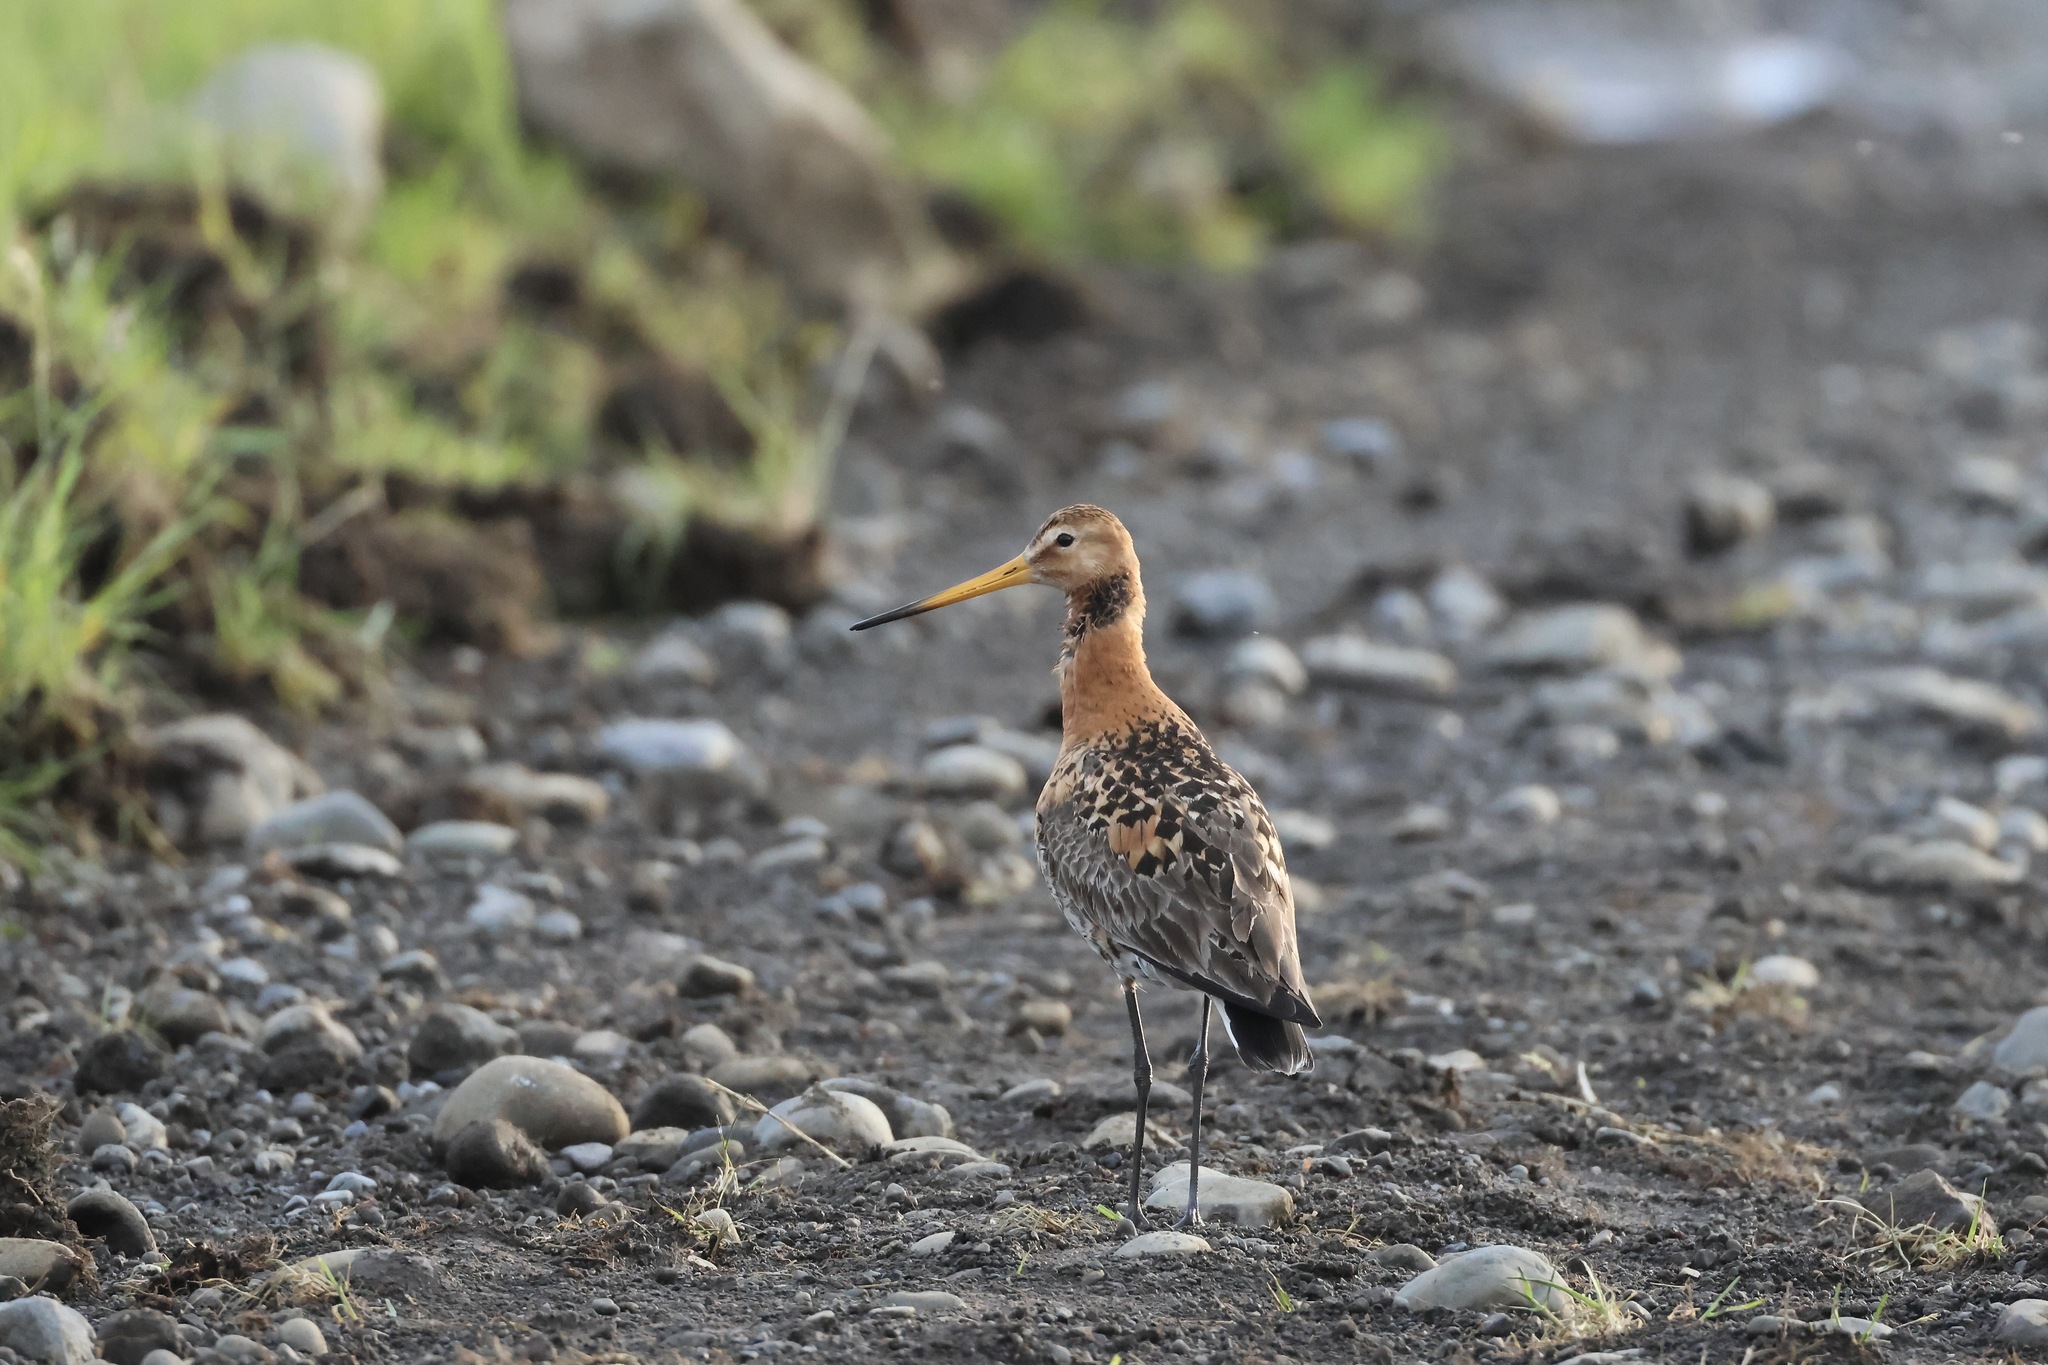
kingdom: Animalia
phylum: Chordata
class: Aves
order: Charadriiformes
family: Scolopacidae
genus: Limosa
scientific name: Limosa limosa
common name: Black-tailed godwit
